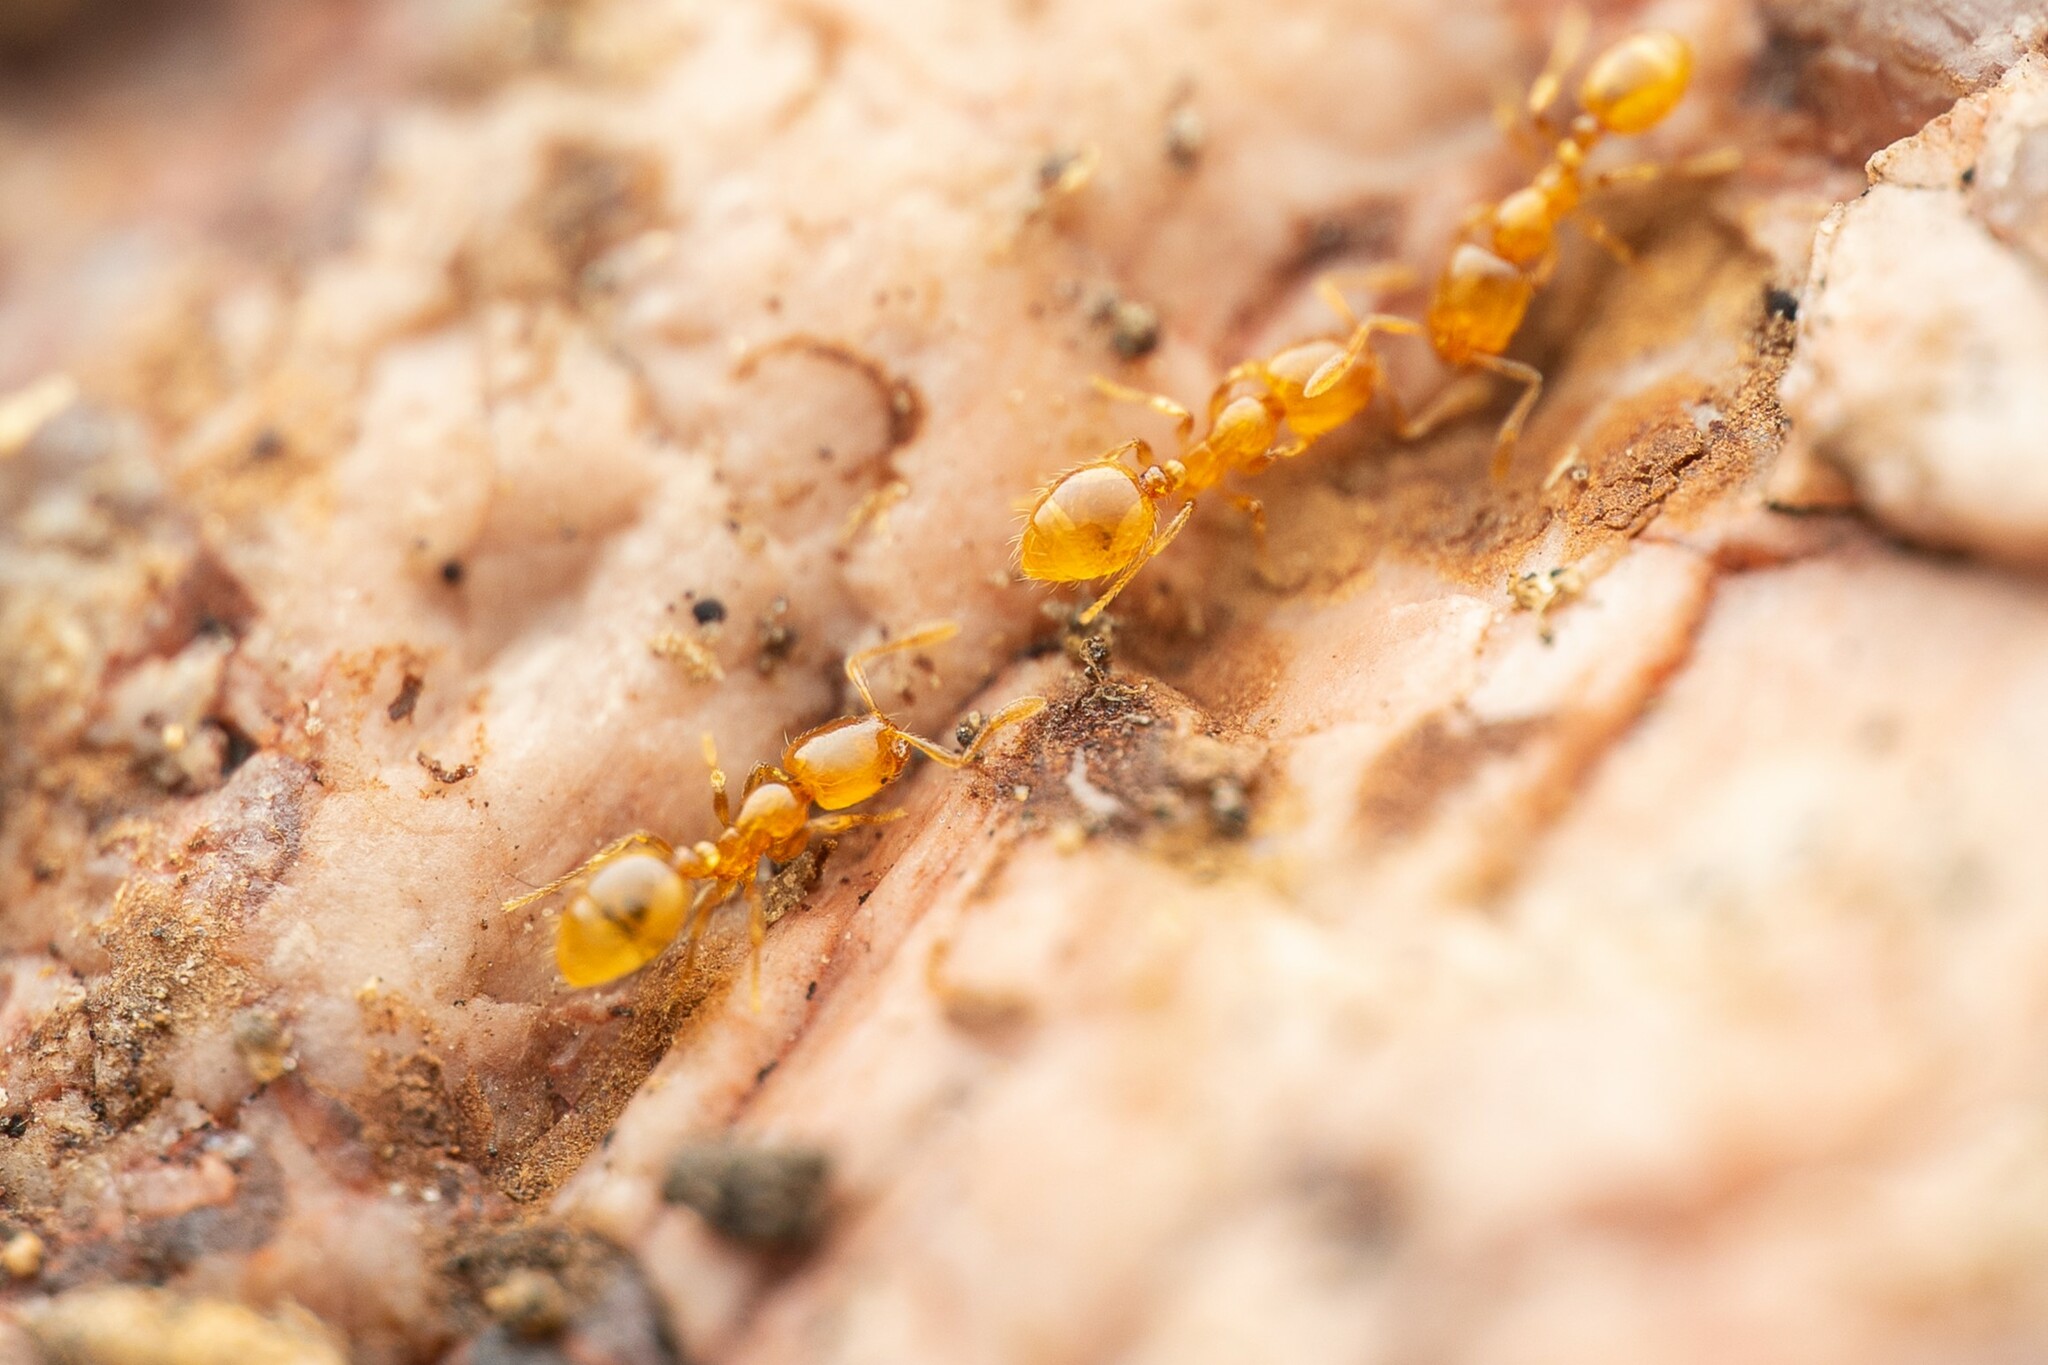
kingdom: Animalia
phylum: Arthropoda
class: Insecta
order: Hymenoptera
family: Formicidae
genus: Solenopsis
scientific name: Solenopsis
